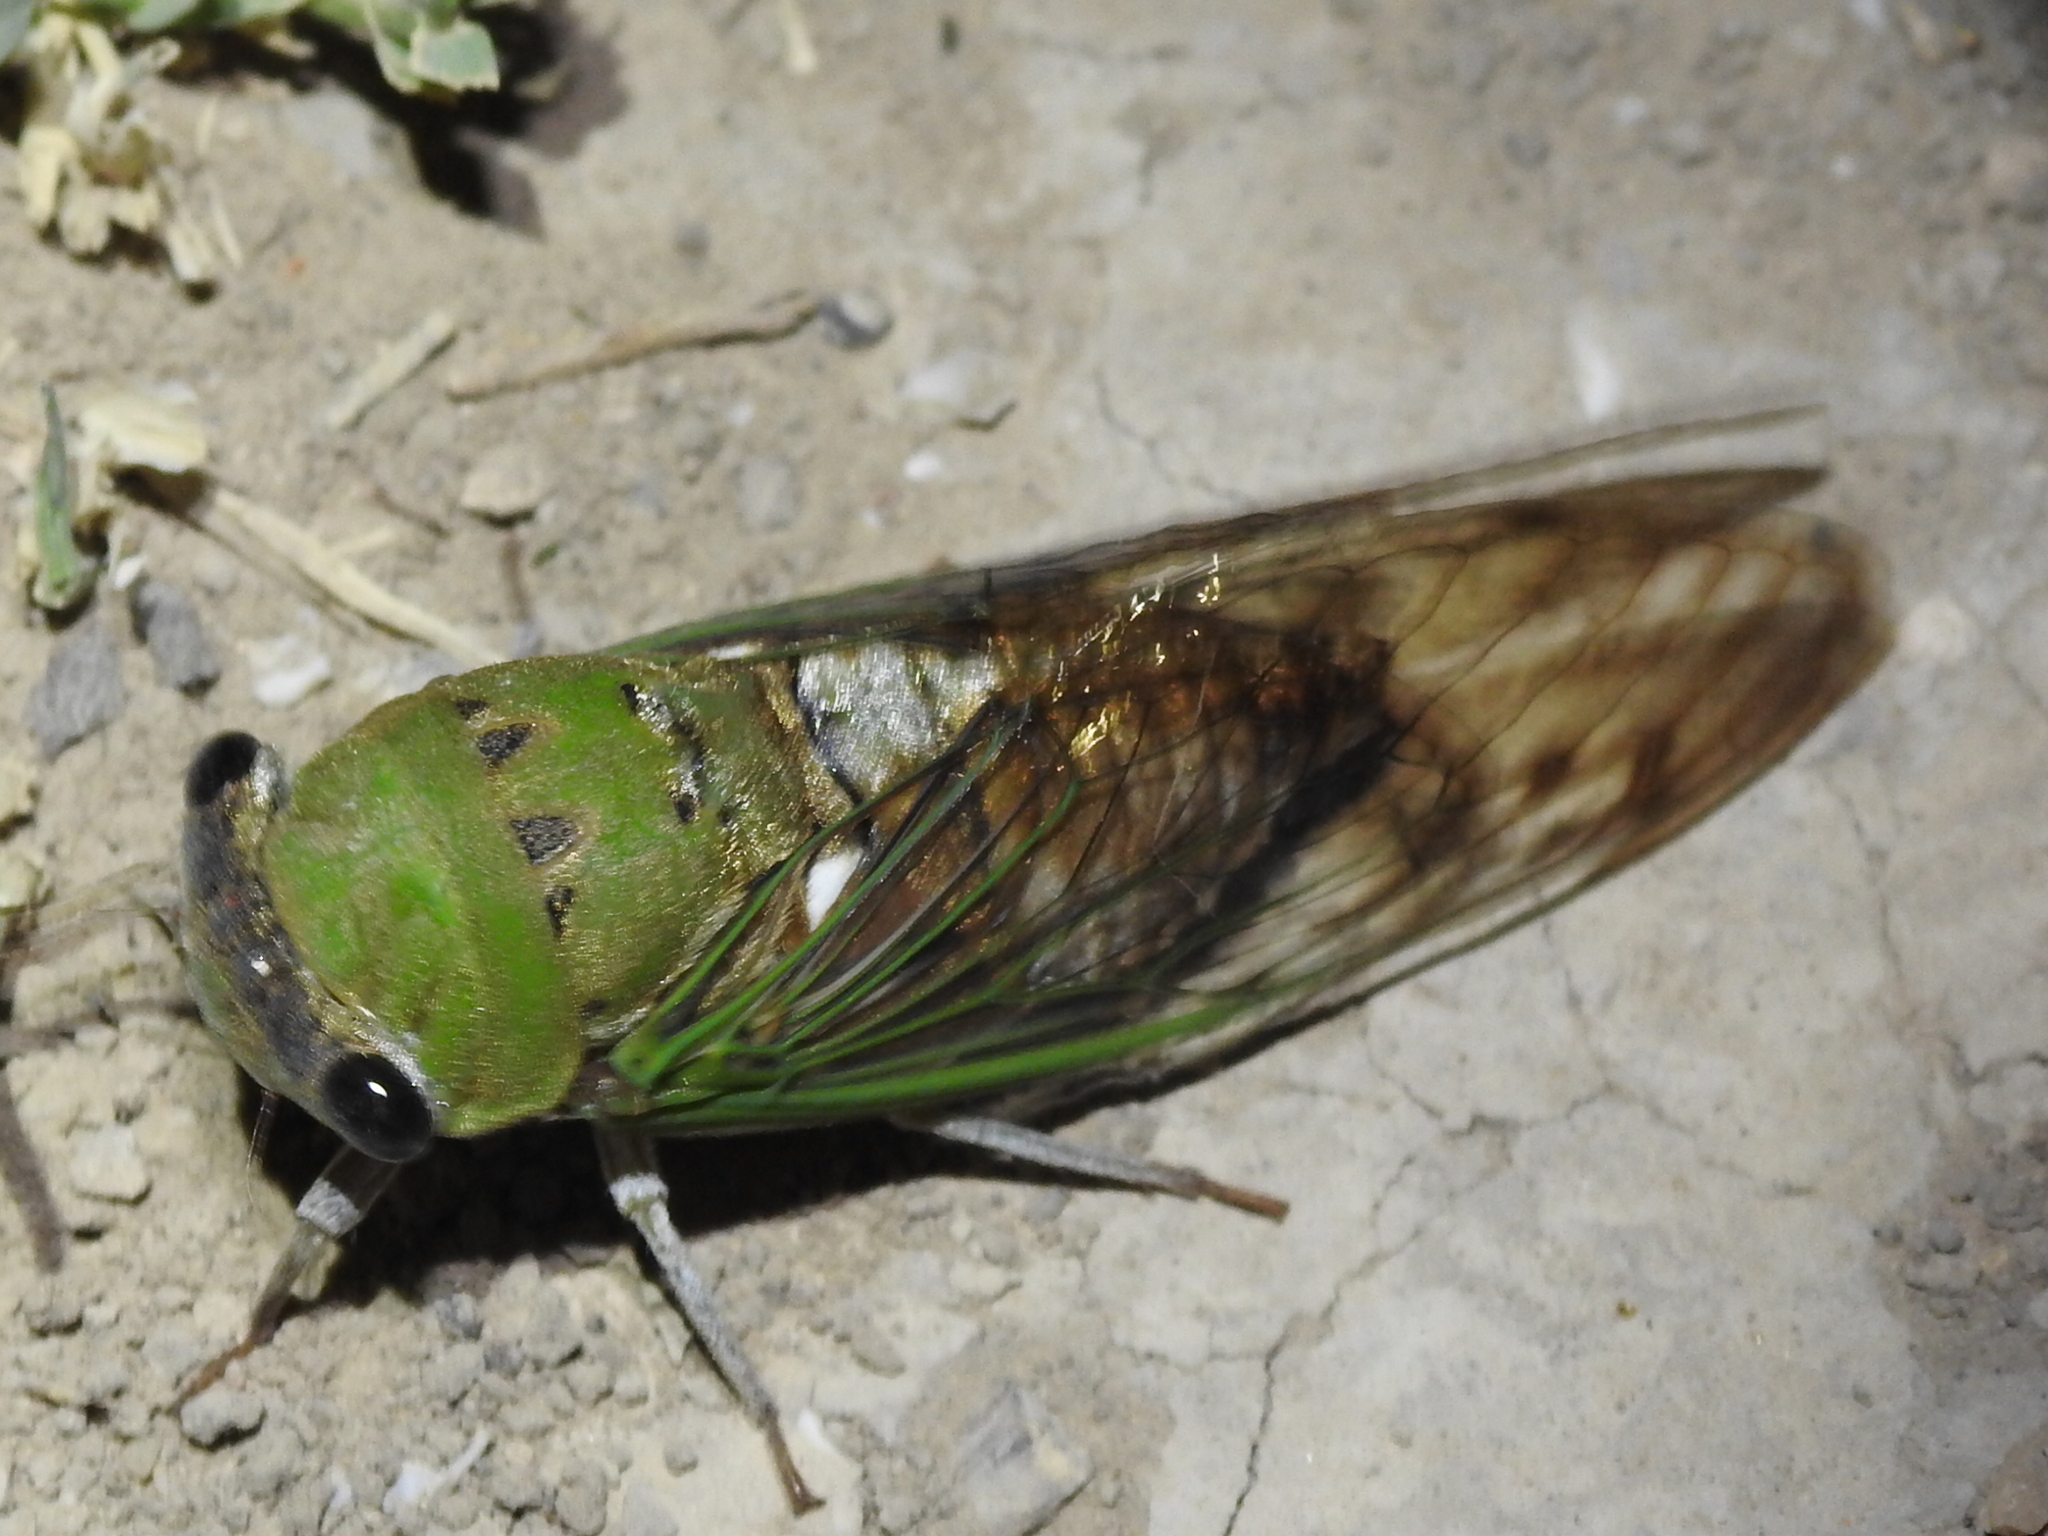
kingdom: Animalia
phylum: Arthropoda
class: Insecta
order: Hemiptera
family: Cicadidae
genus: Neotibicen
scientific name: Neotibicen superbus
